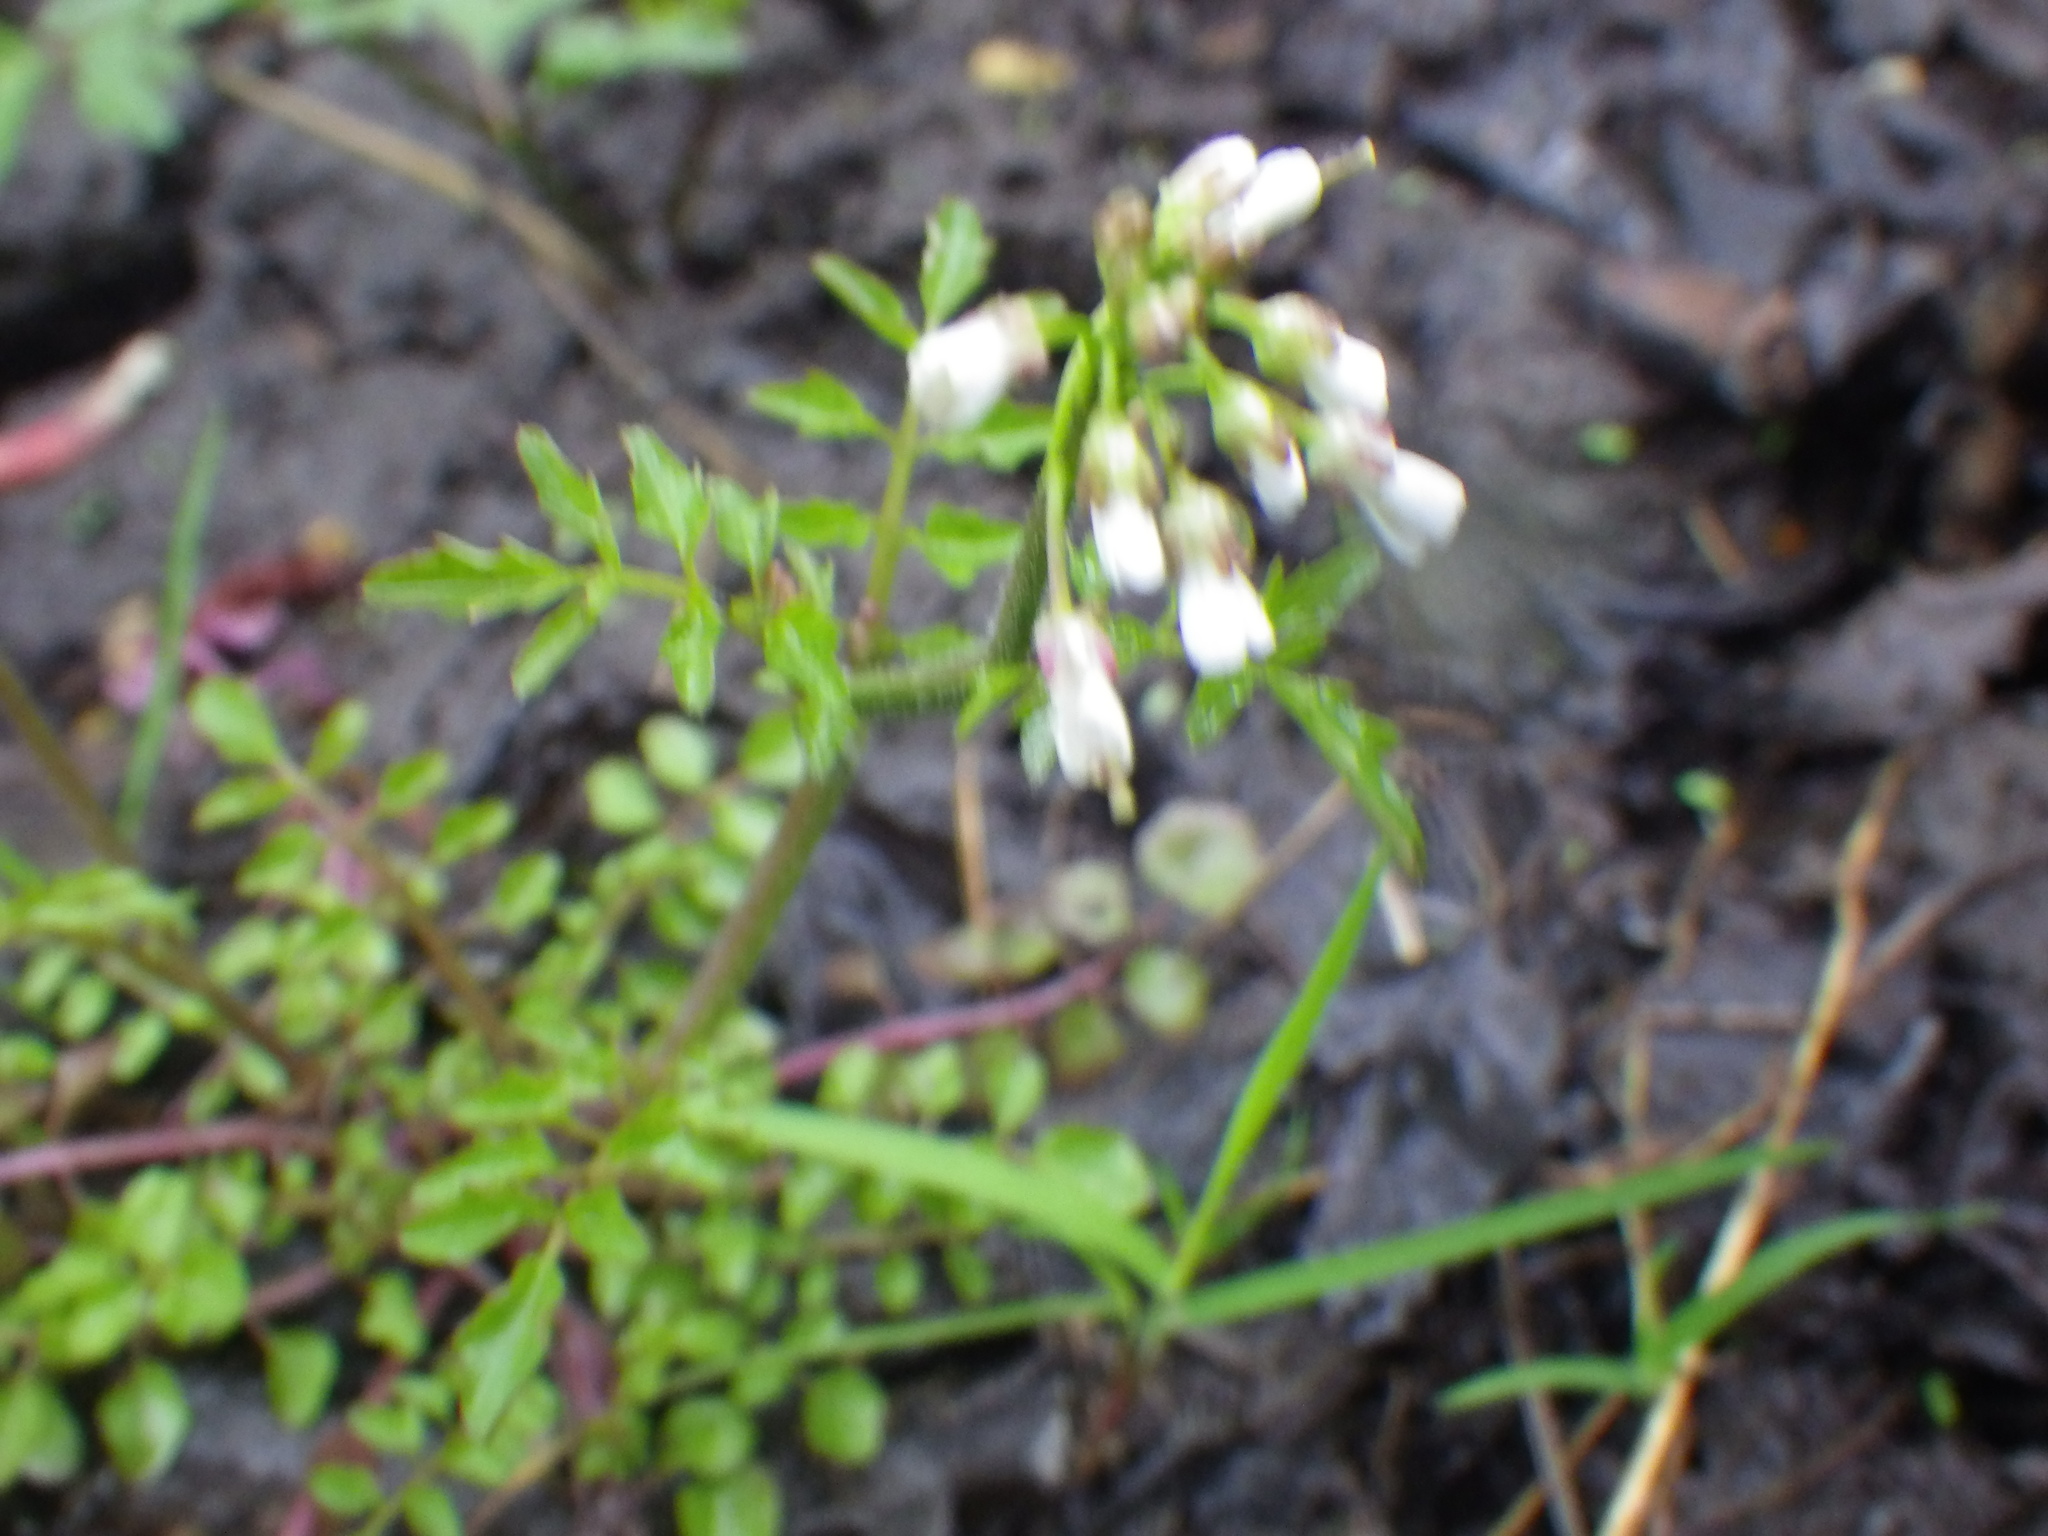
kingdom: Plantae
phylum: Tracheophyta
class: Magnoliopsida
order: Brassicales
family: Brassicaceae
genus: Cardamine
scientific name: Cardamine flexuosa
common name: Woodland bittercress
